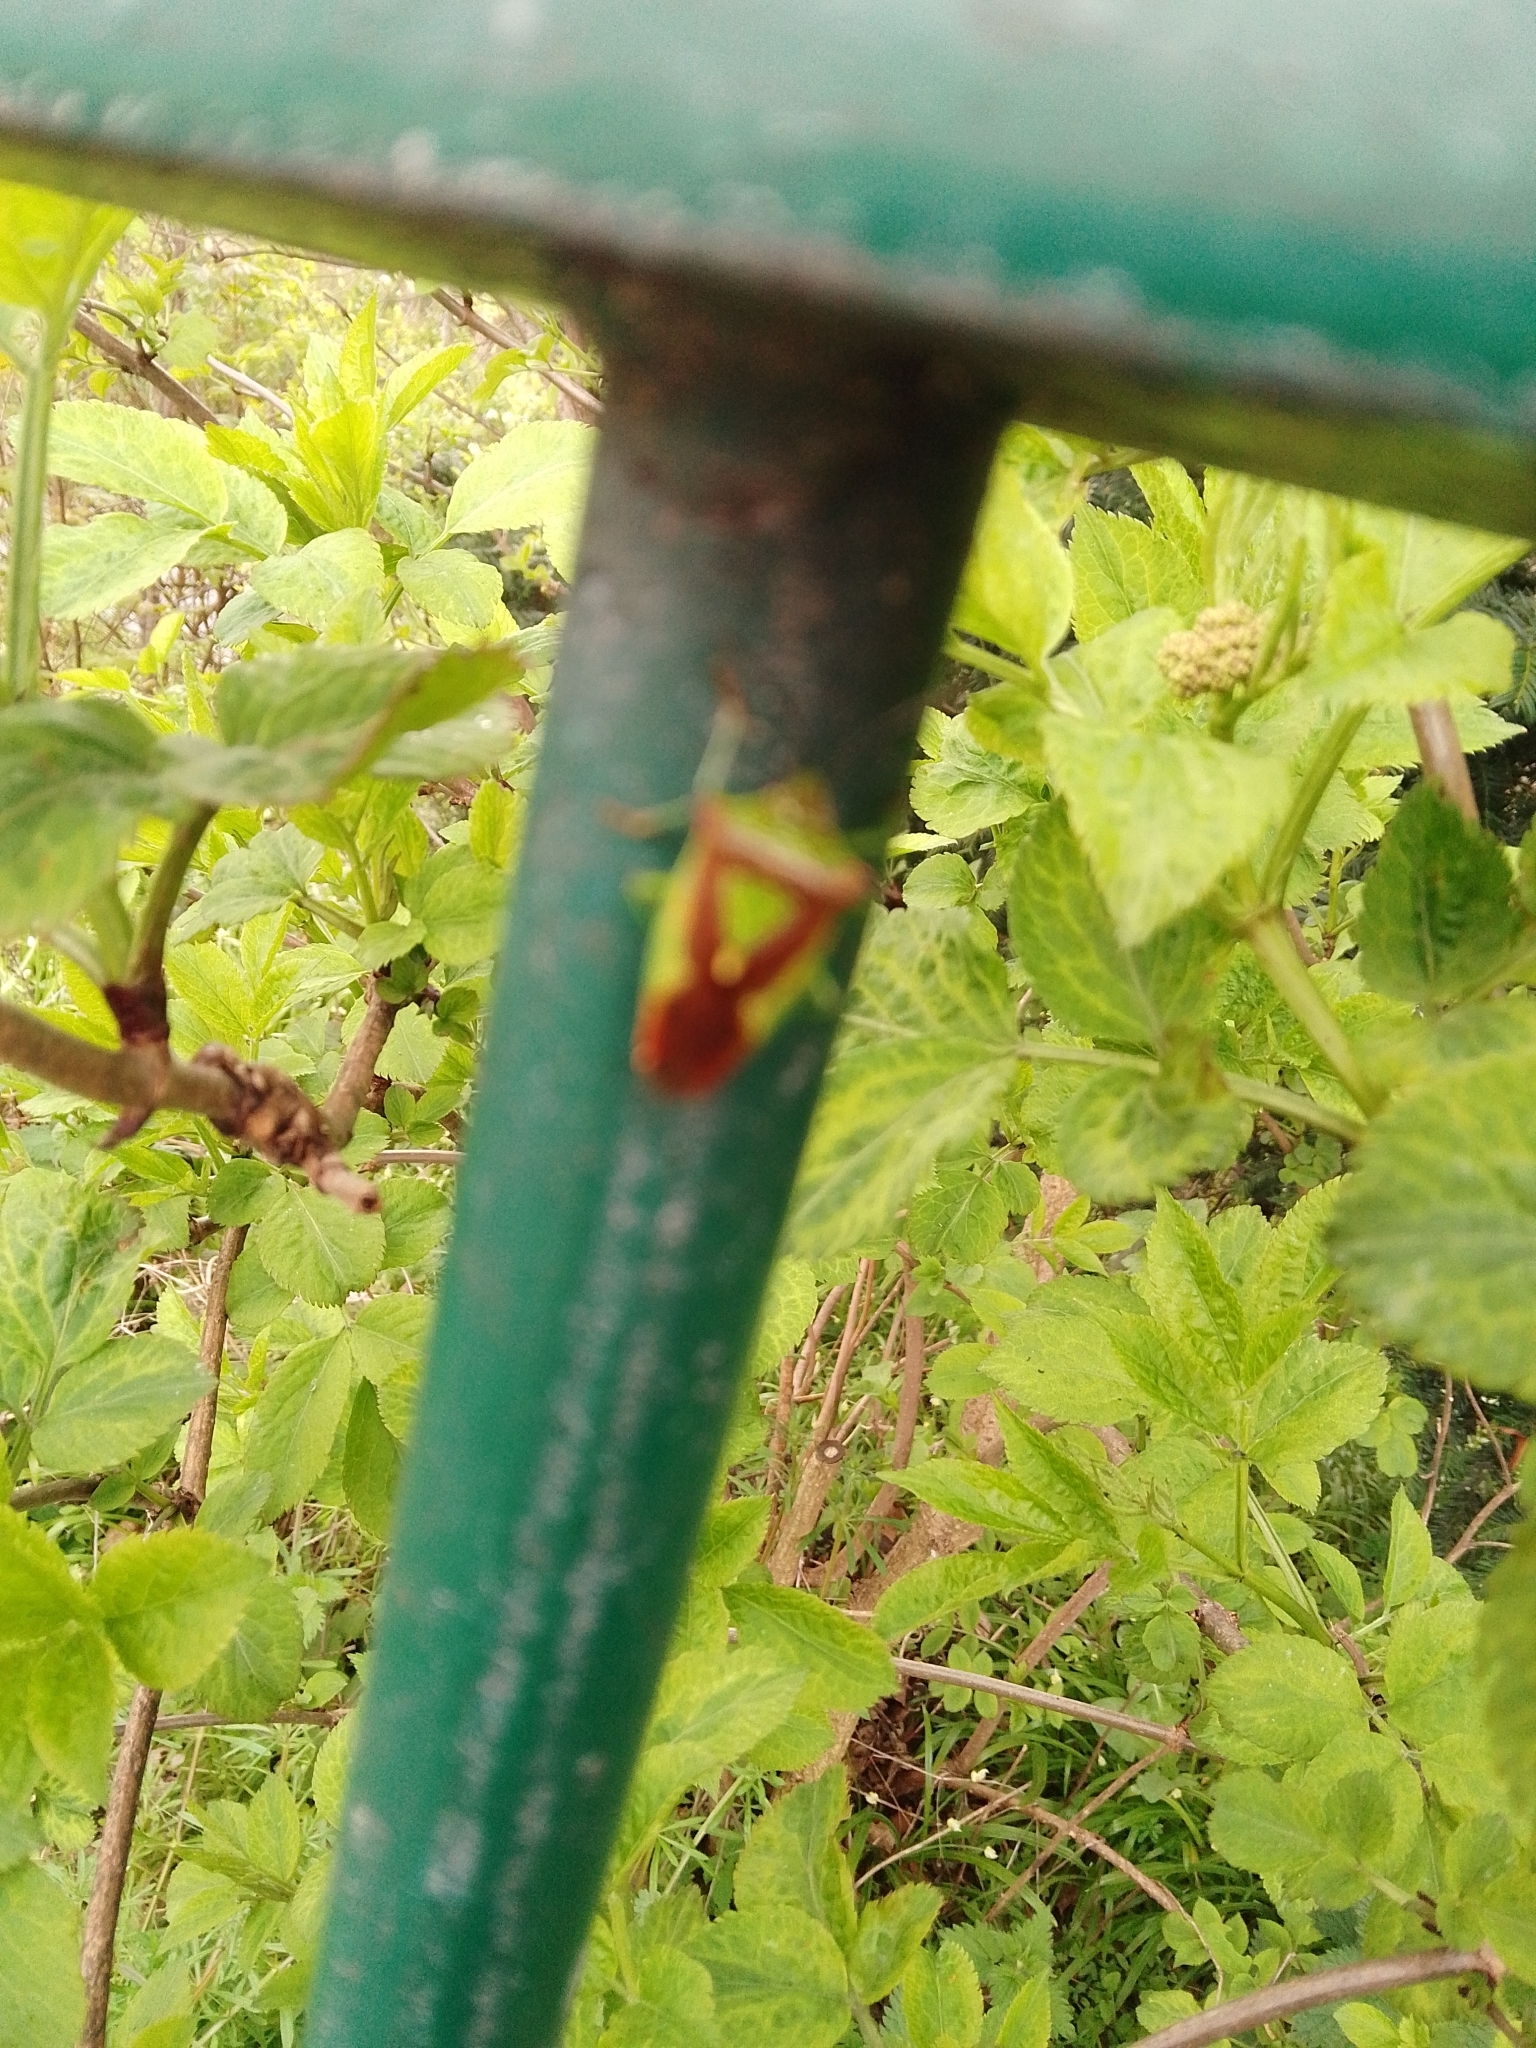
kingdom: Animalia
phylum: Arthropoda
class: Insecta
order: Hemiptera
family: Acanthosomatidae
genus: Acanthosoma
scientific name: Acanthosoma haemorrhoidale
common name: Hawthorn shieldbug
